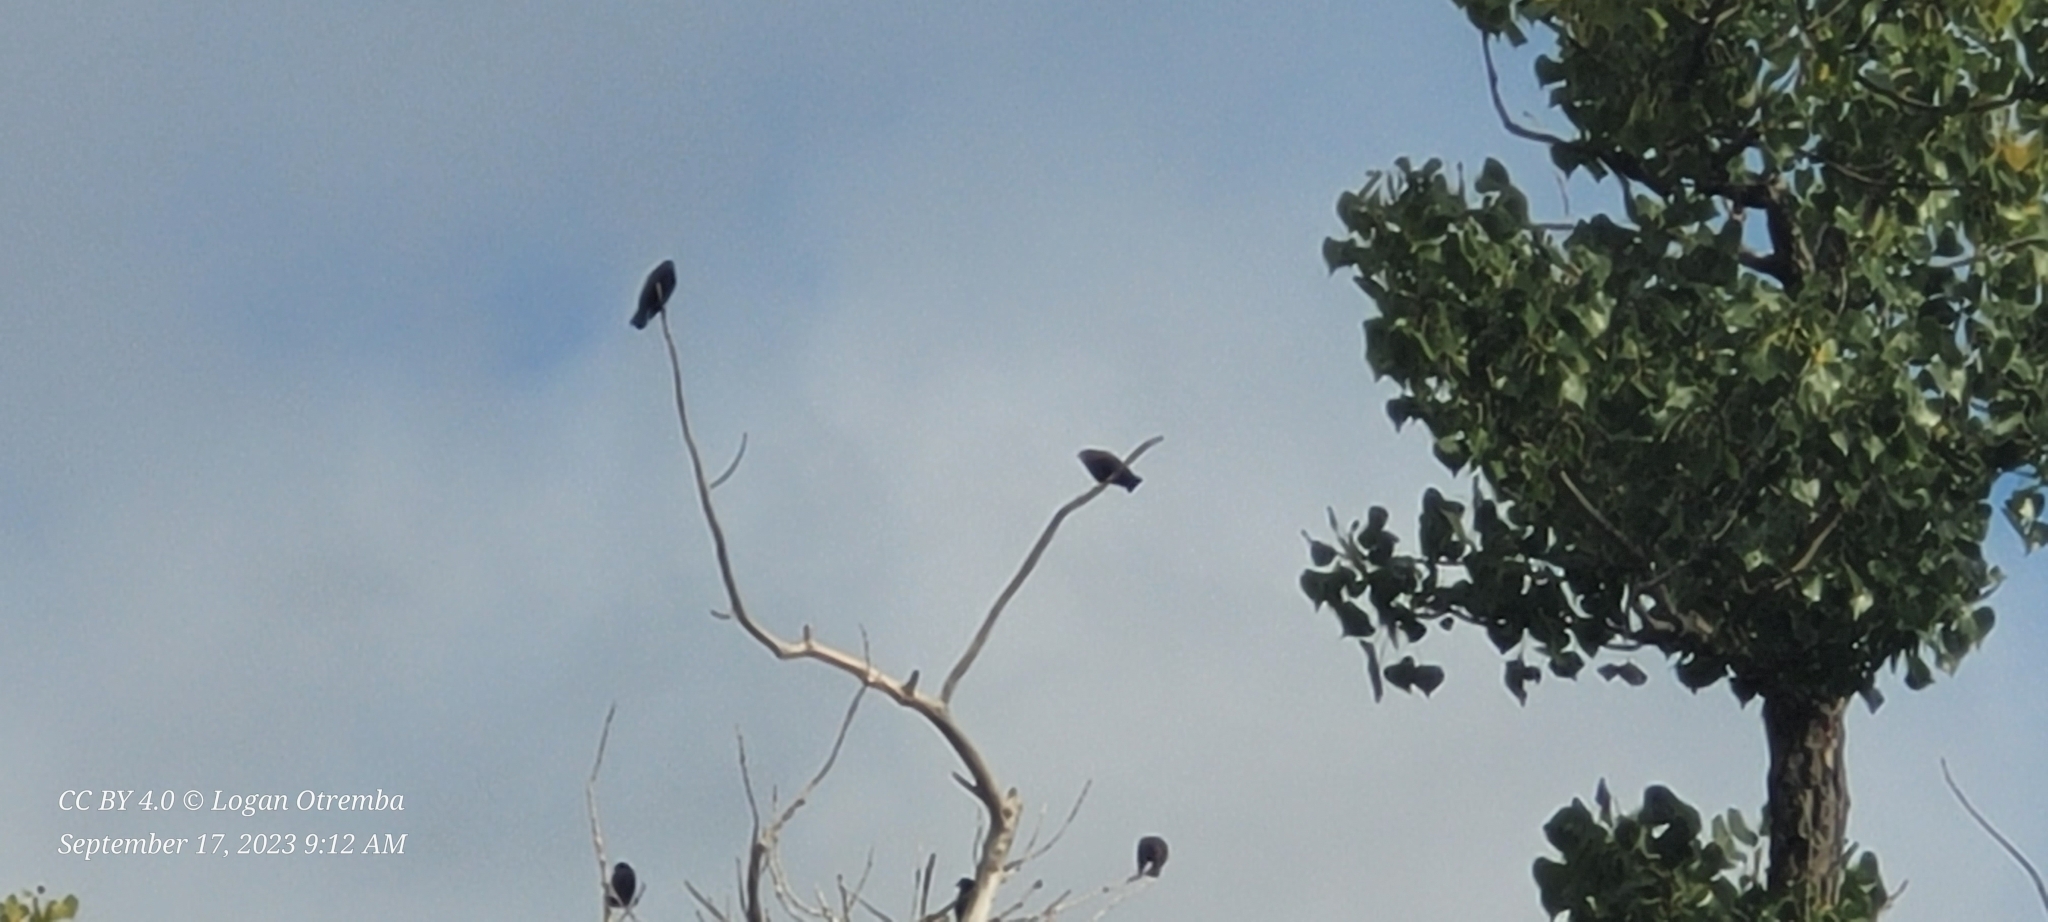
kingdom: Animalia
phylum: Chordata
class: Aves
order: Passeriformes
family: Sturnidae
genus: Sturnus
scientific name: Sturnus vulgaris
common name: Common starling
